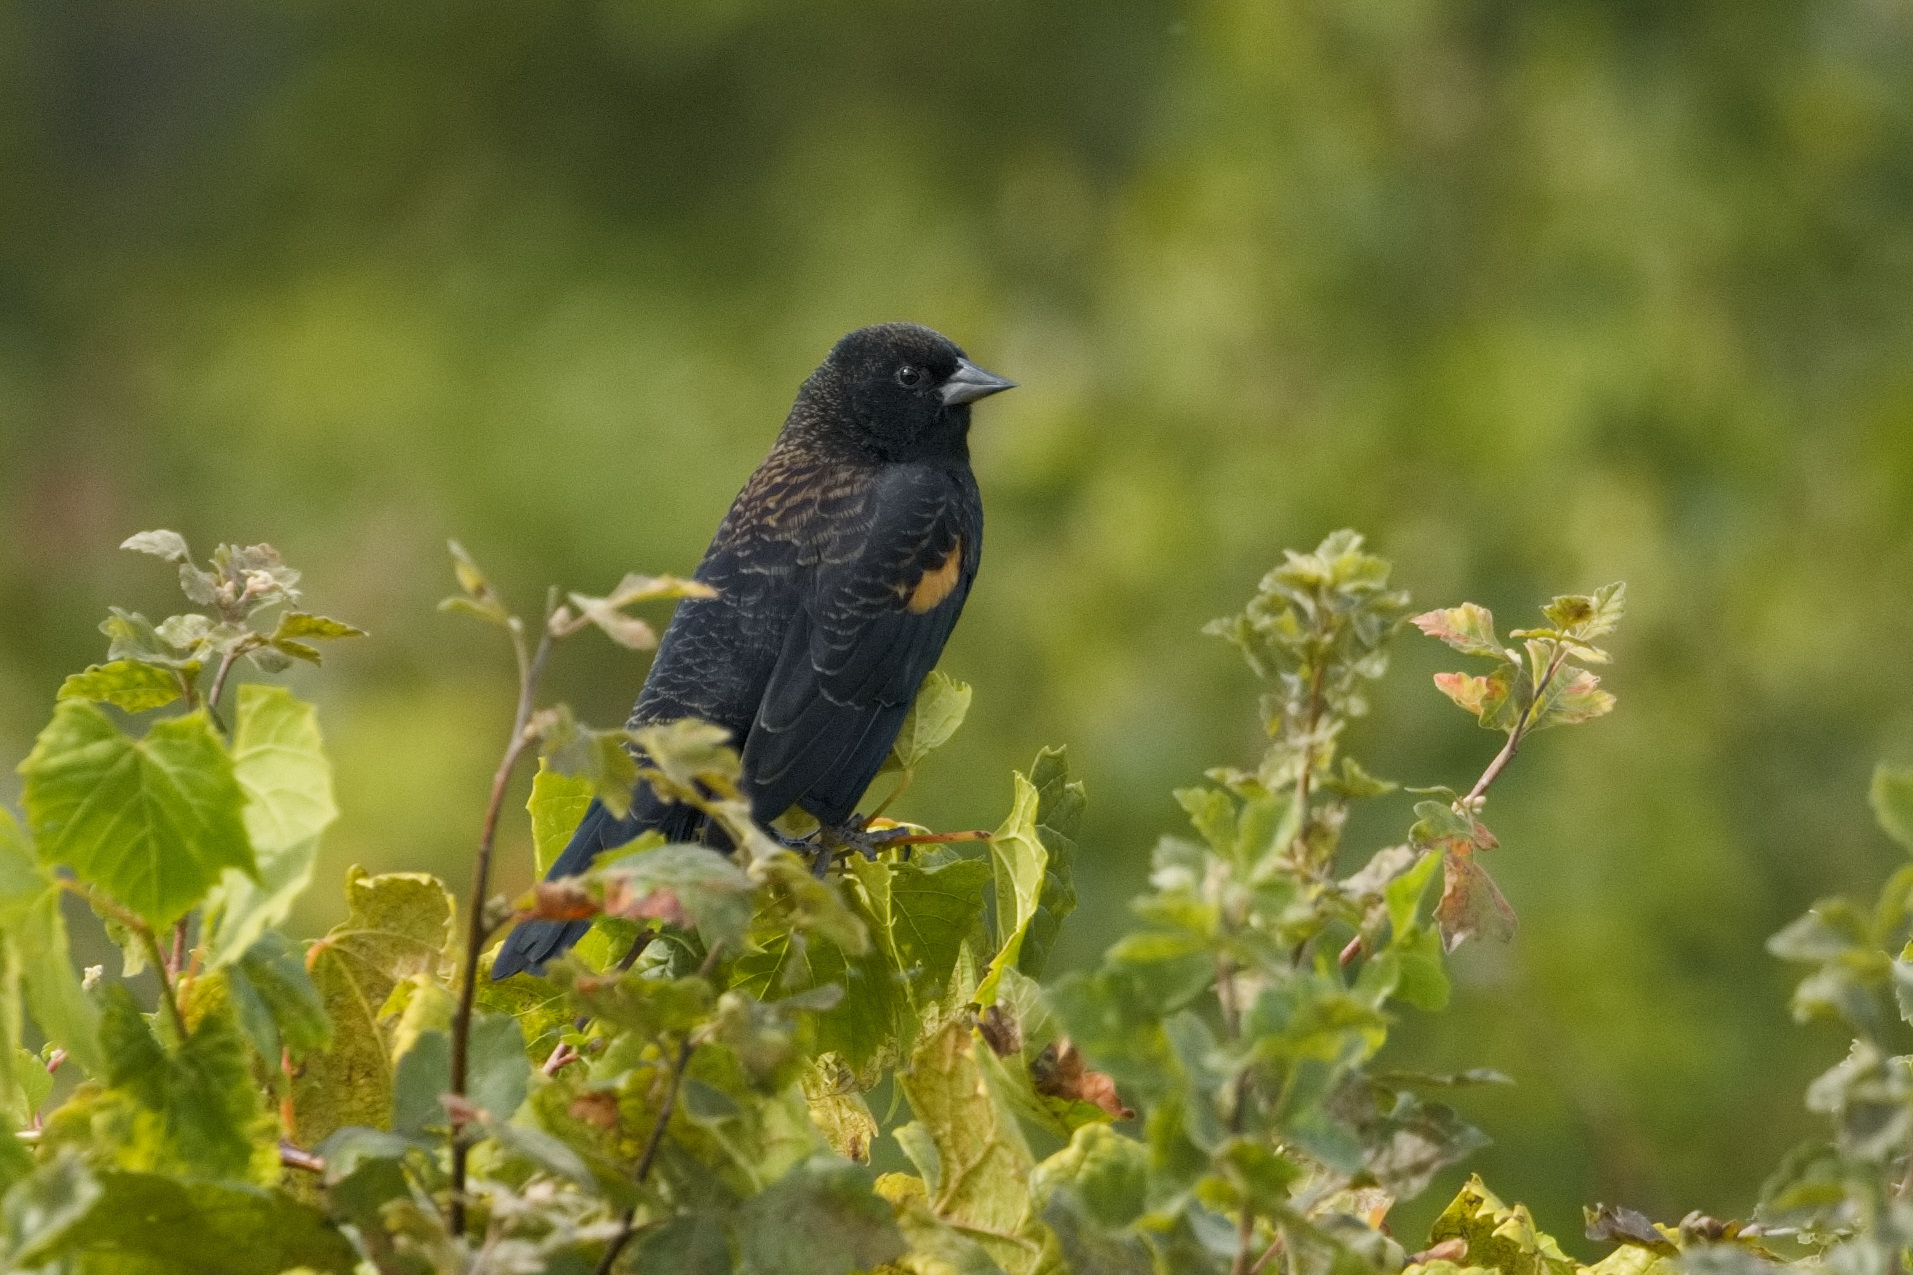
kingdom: Animalia
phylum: Chordata
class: Aves
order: Passeriformes
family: Icteridae
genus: Agelaius
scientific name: Agelaius phoeniceus
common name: Red-winged blackbird
